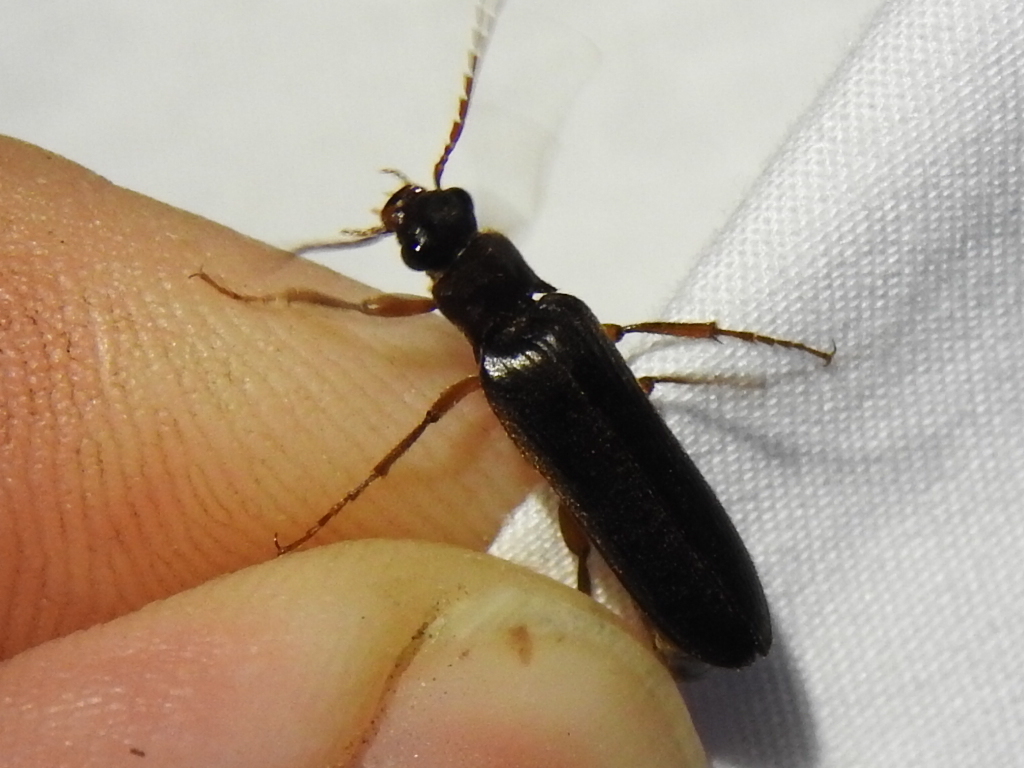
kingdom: Animalia
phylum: Arthropoda
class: Insecta
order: Coleoptera
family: Elateridae
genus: Selonodon
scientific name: Selonodon
